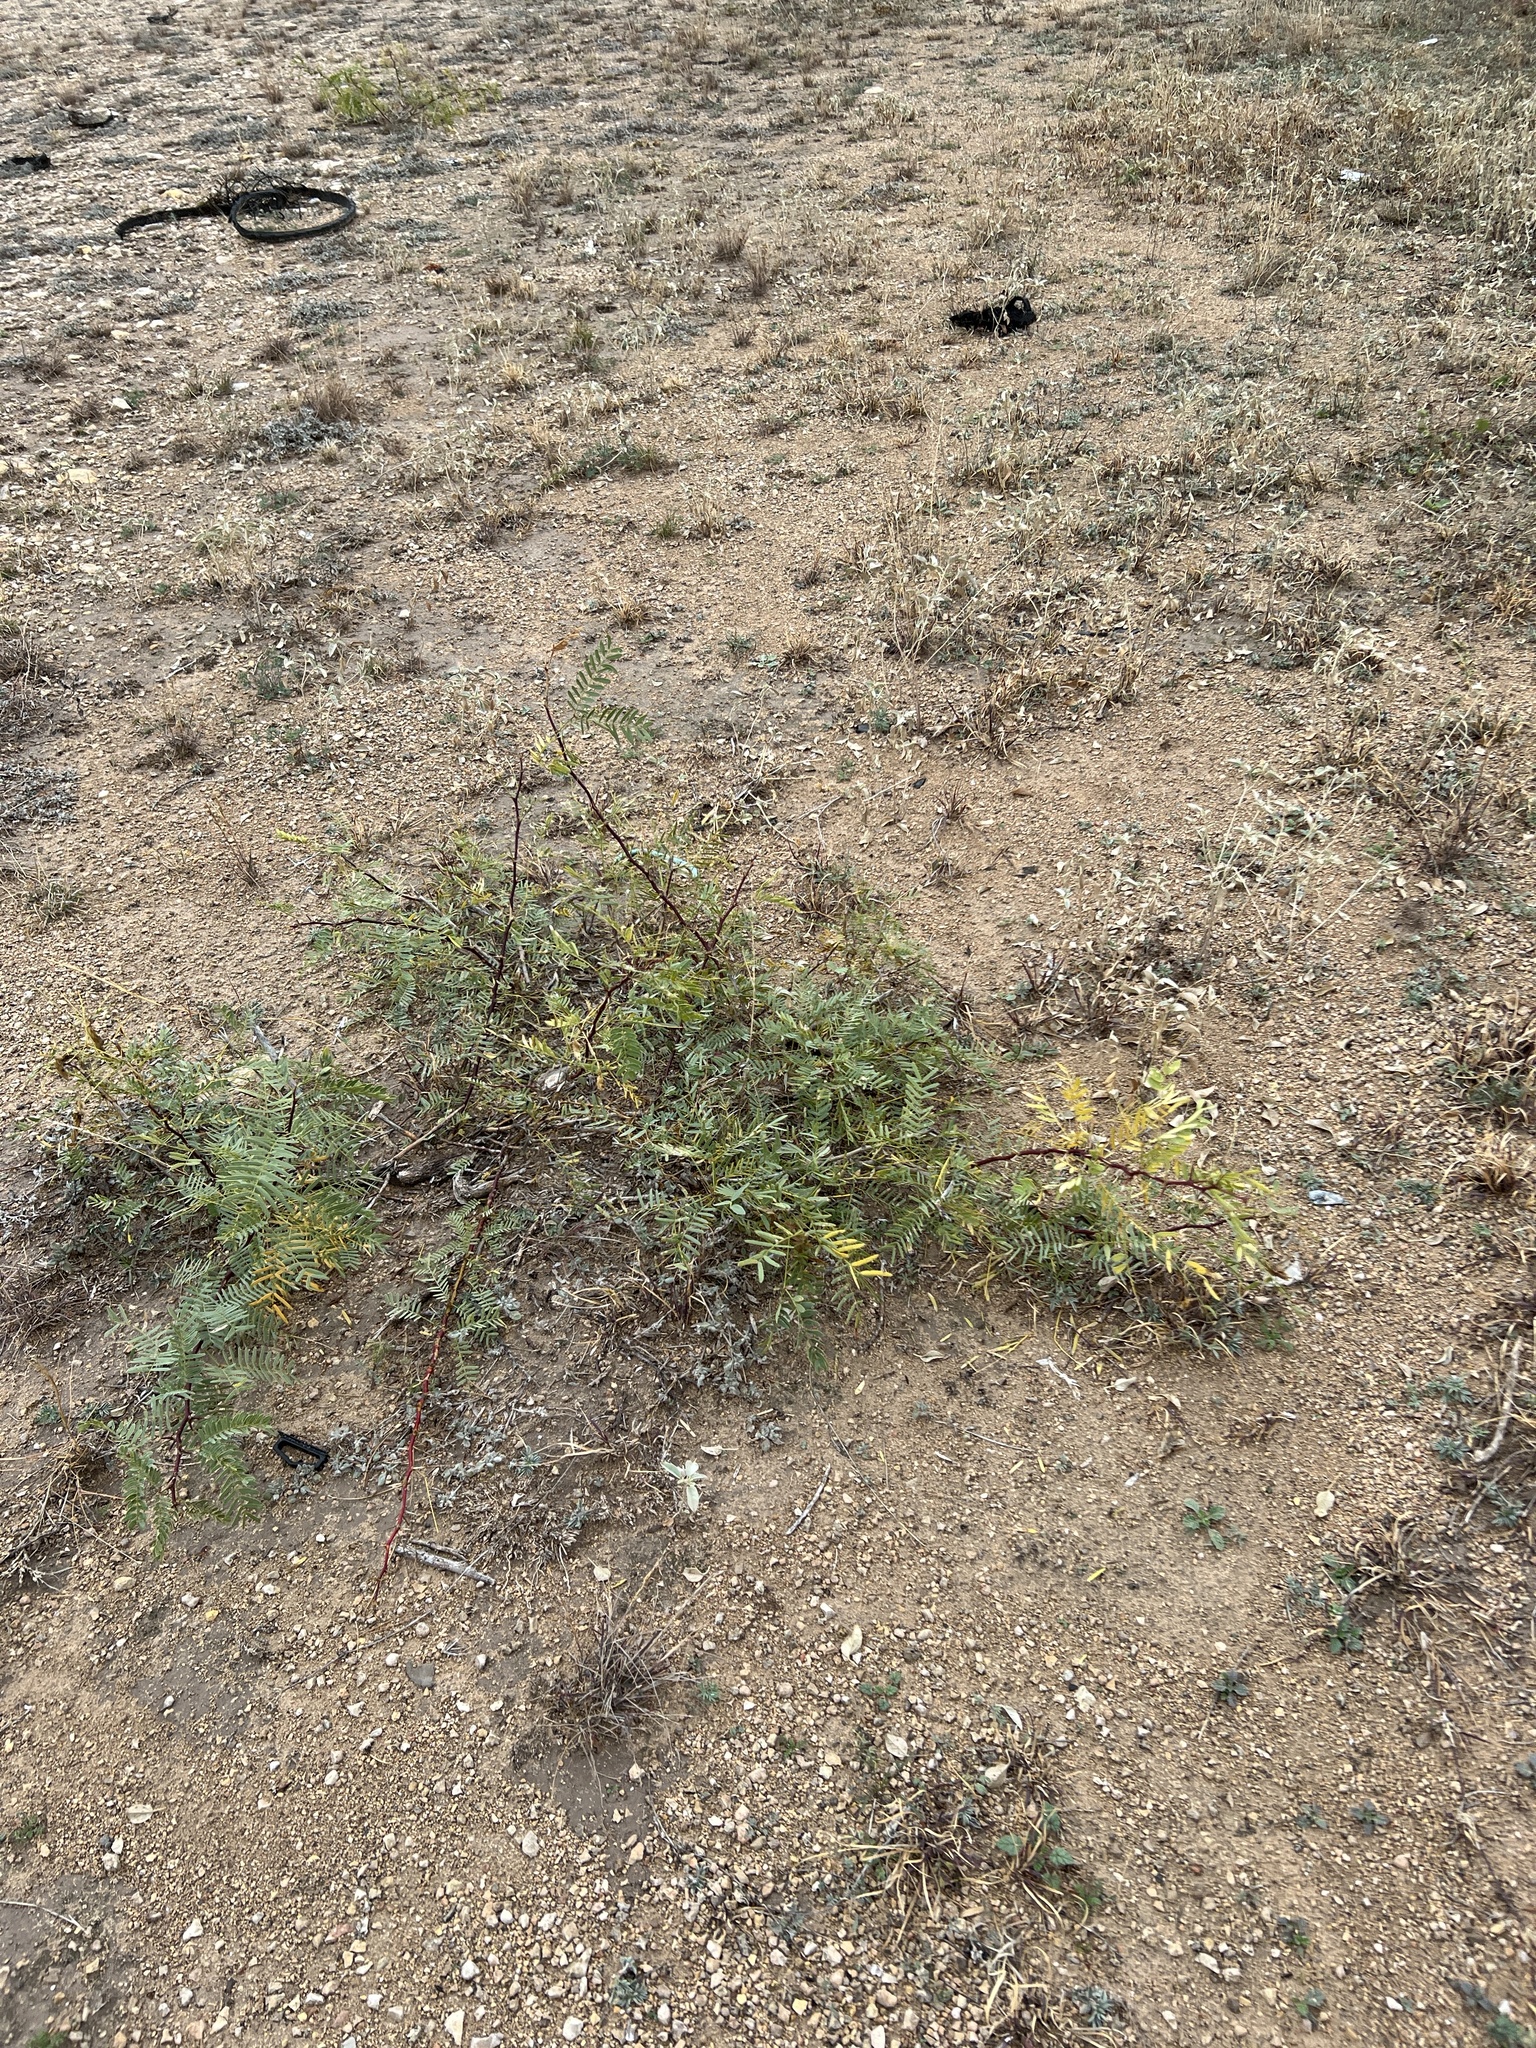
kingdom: Plantae
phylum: Tracheophyta
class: Magnoliopsida
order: Fabales
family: Fabaceae
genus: Prosopis
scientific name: Prosopis glandulosa
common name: Honey mesquite
